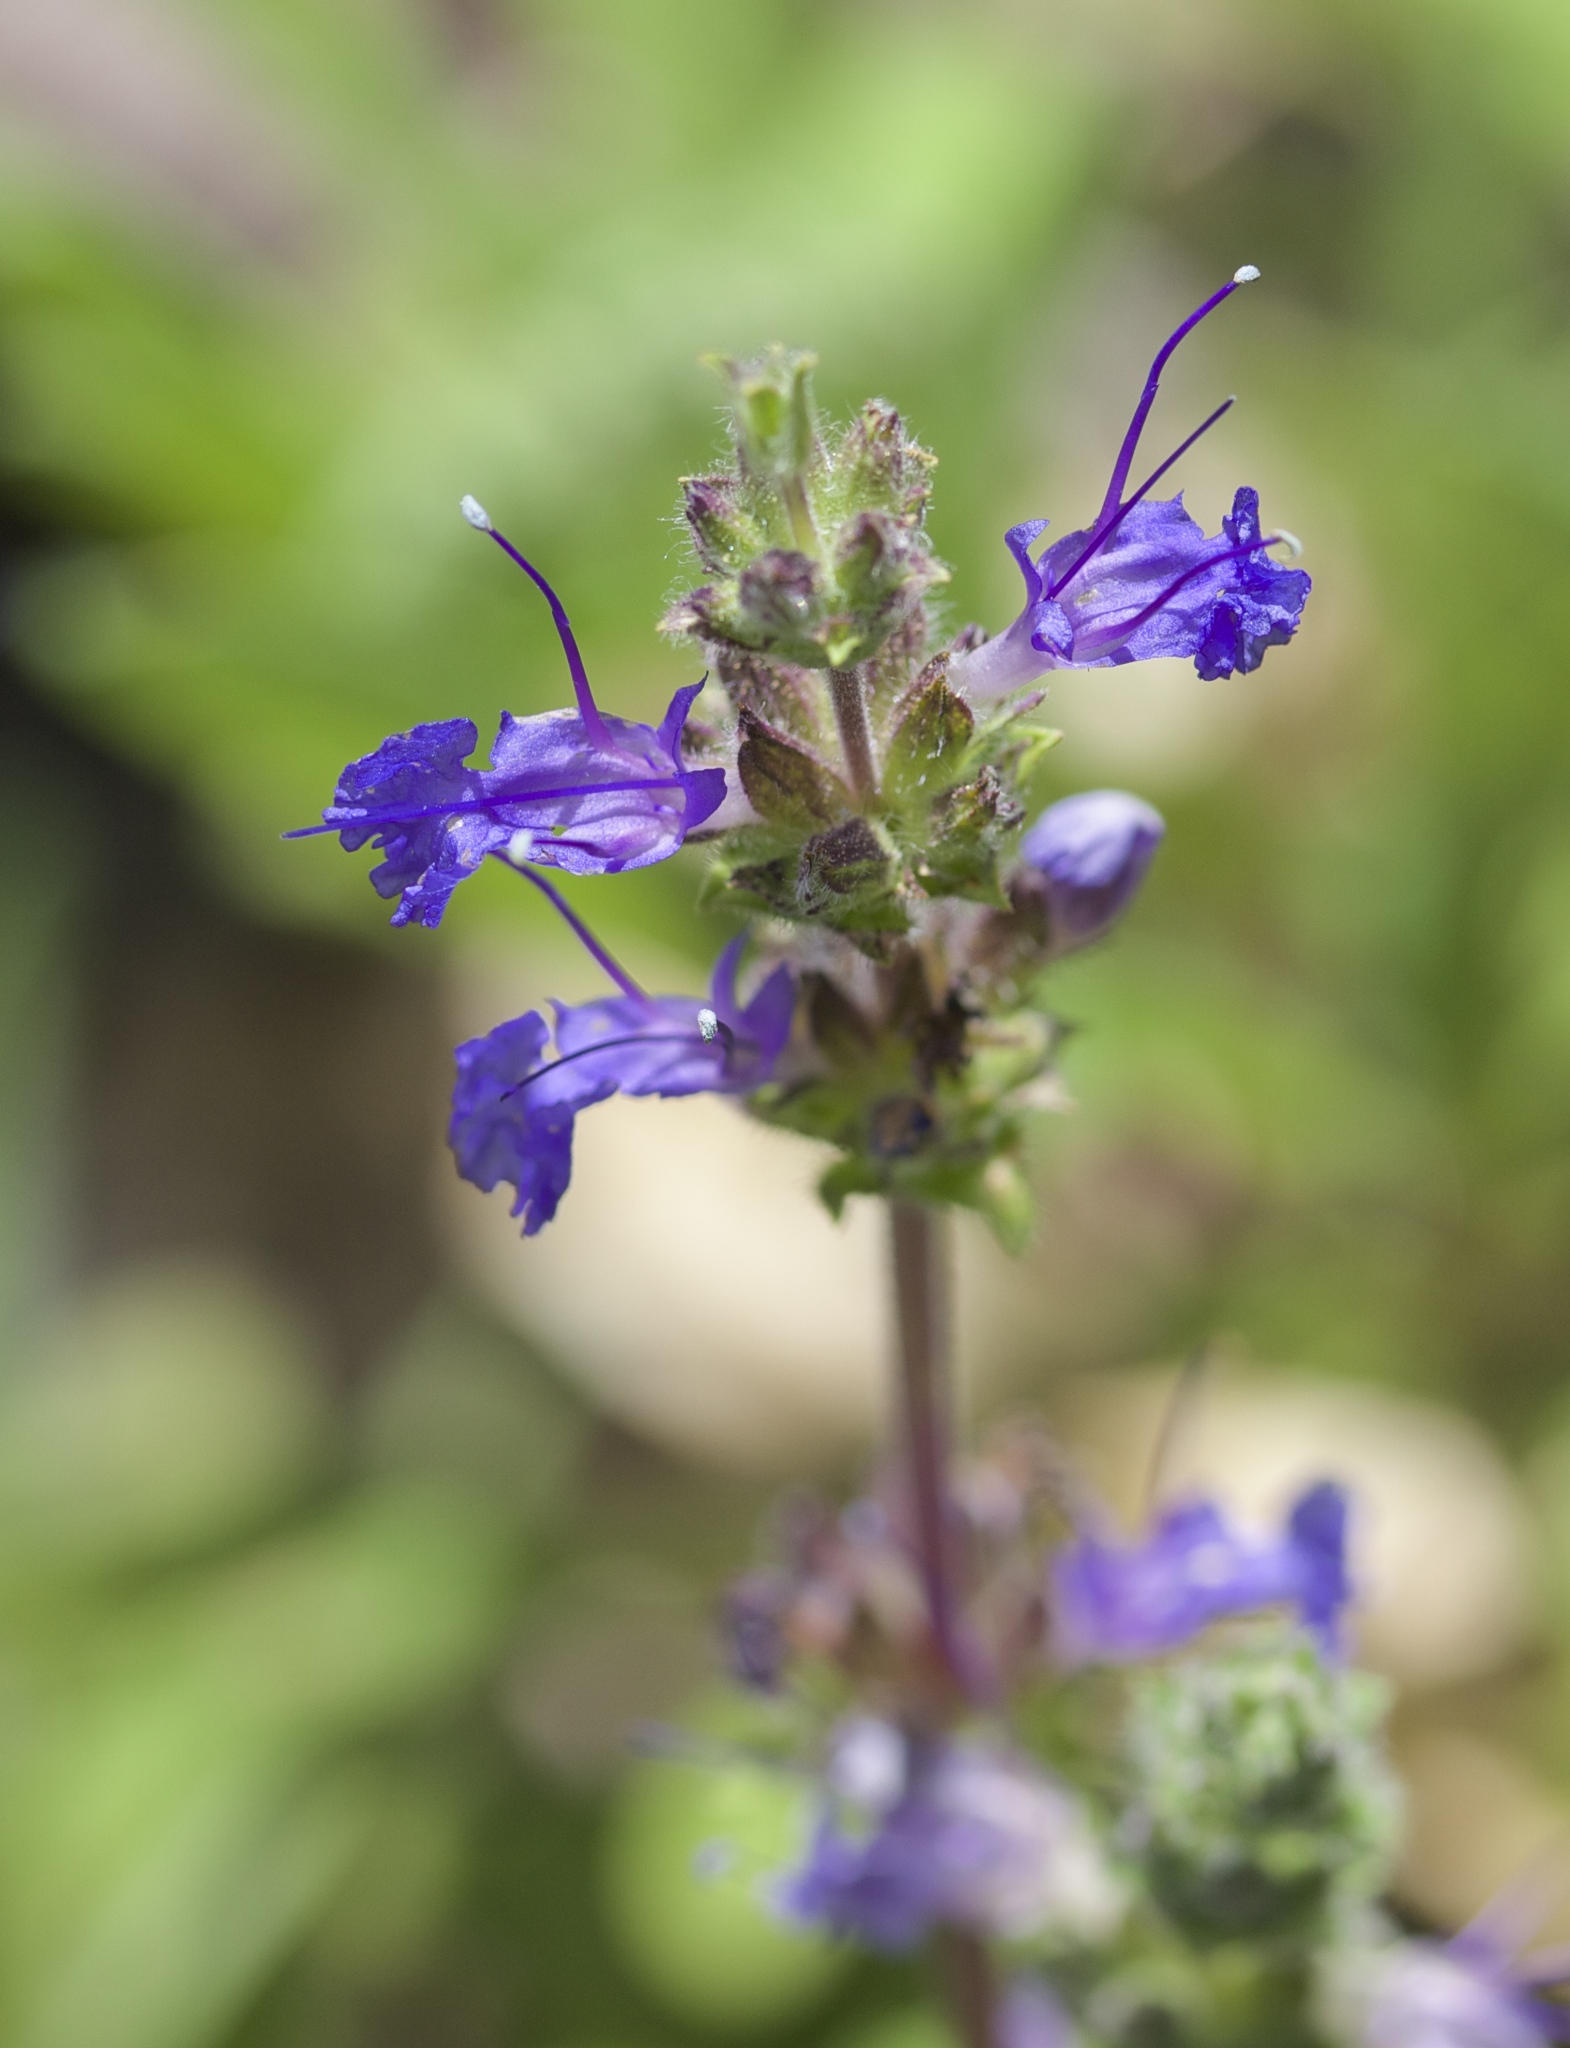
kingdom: Plantae
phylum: Tracheophyta
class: Magnoliopsida
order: Lamiales
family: Lamiaceae
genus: Salvia
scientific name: Salvia sonomensis
